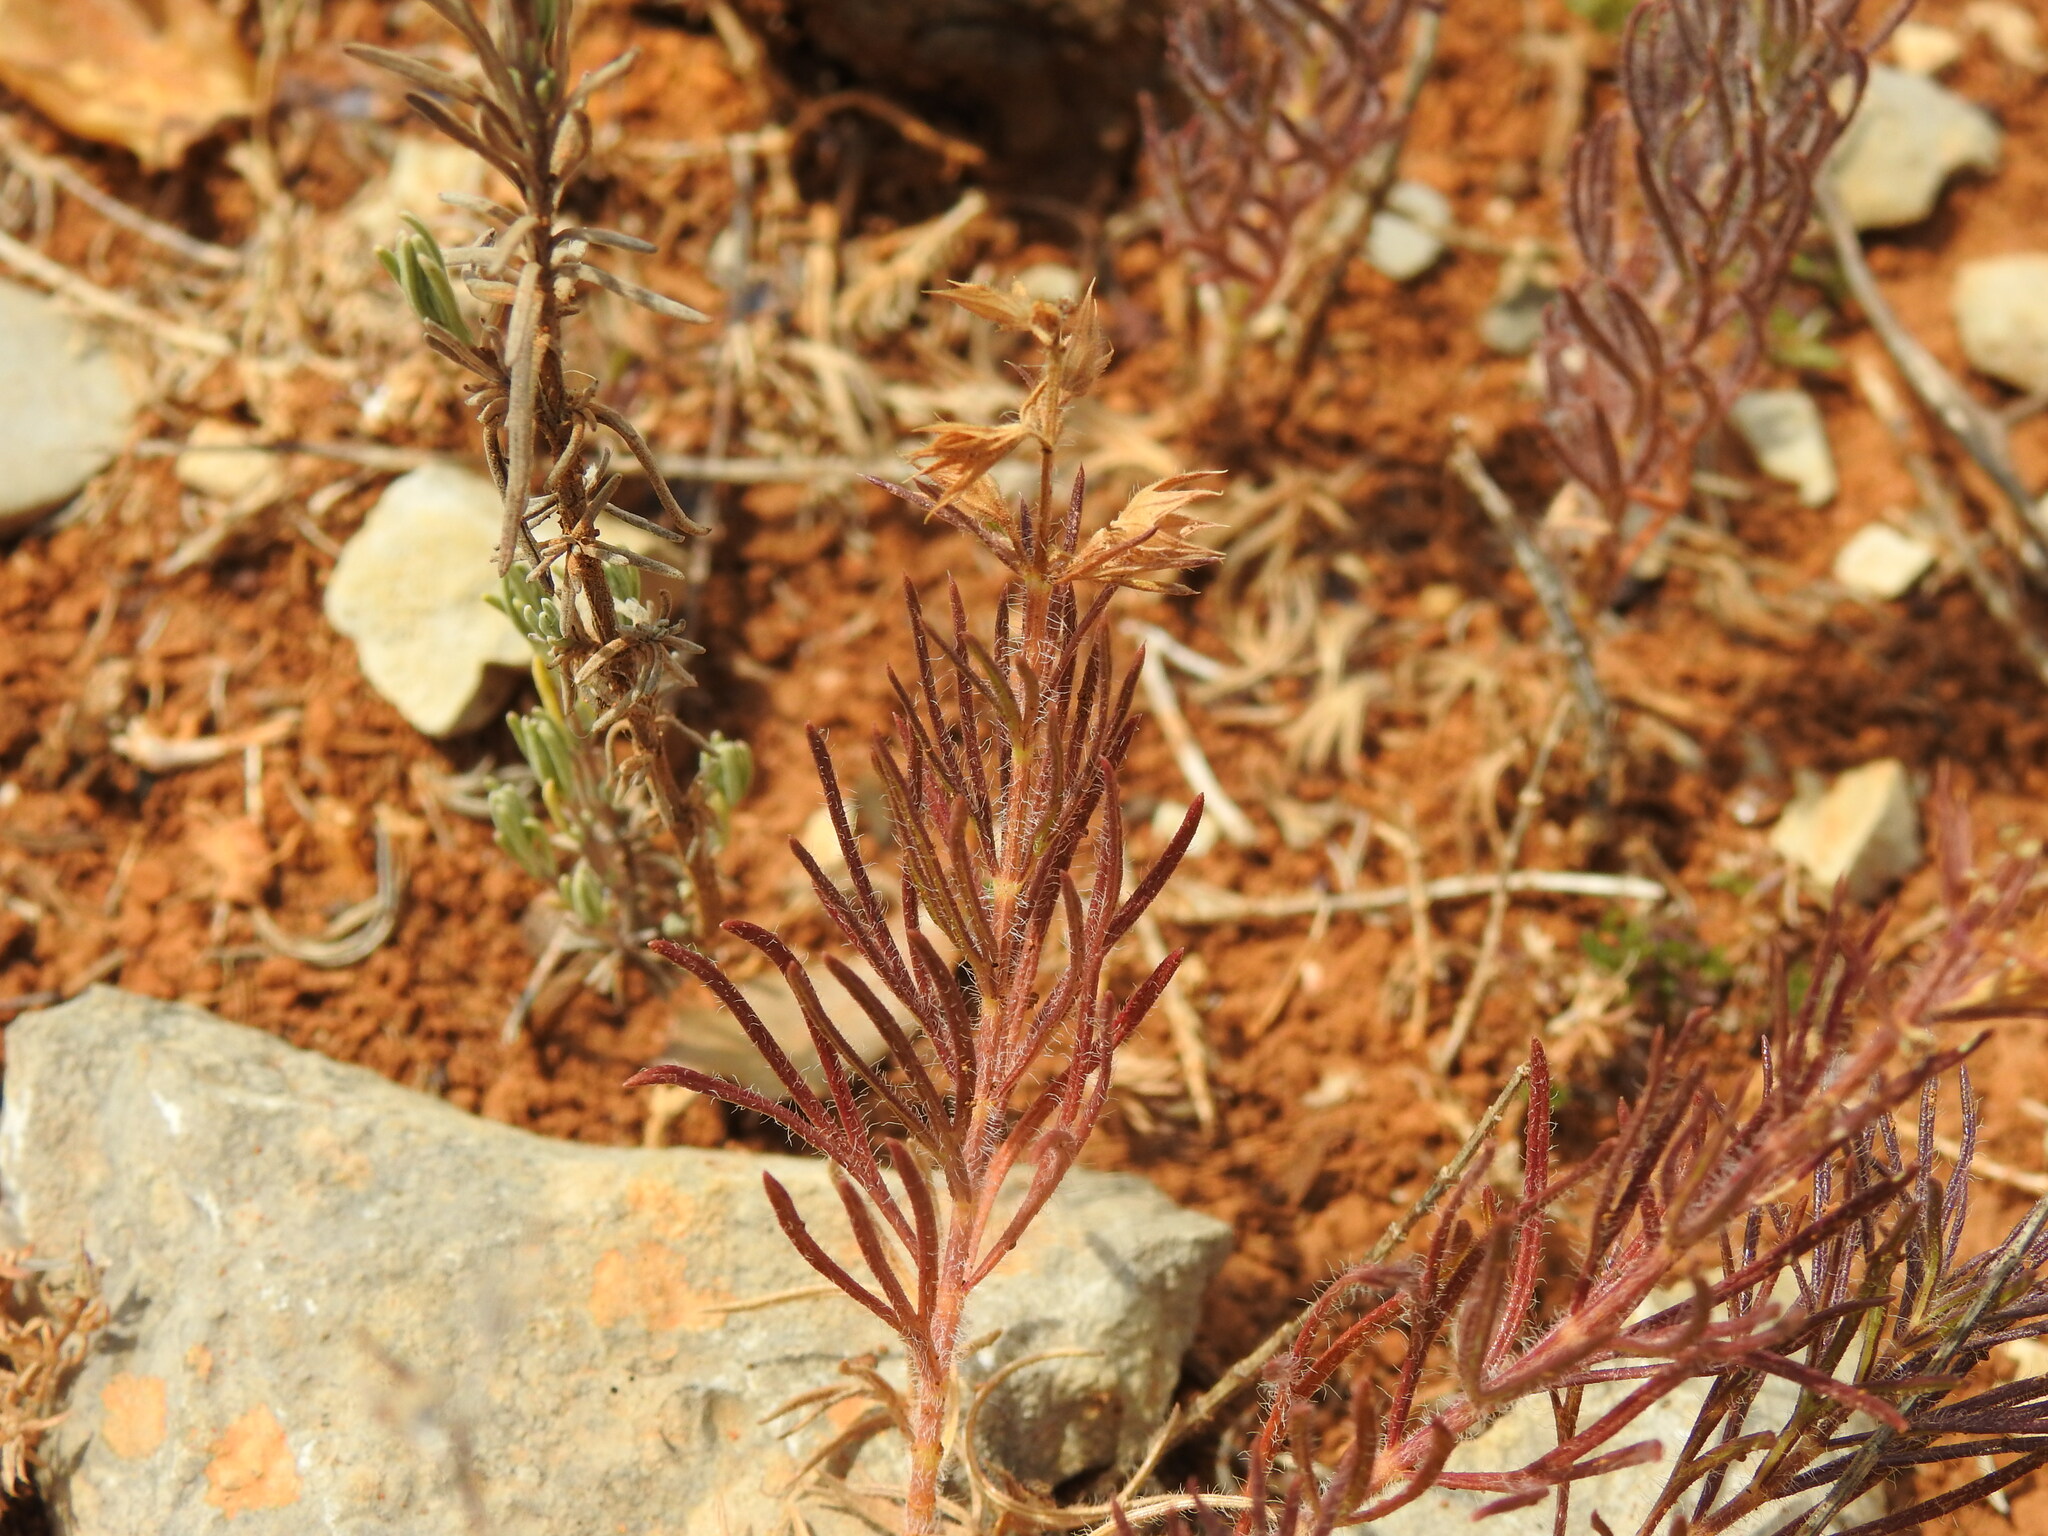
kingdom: Plantae
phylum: Tracheophyta
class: Magnoliopsida
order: Lamiales
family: Lamiaceae
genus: Teucrium
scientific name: Teucrium pseudochamaepitys
